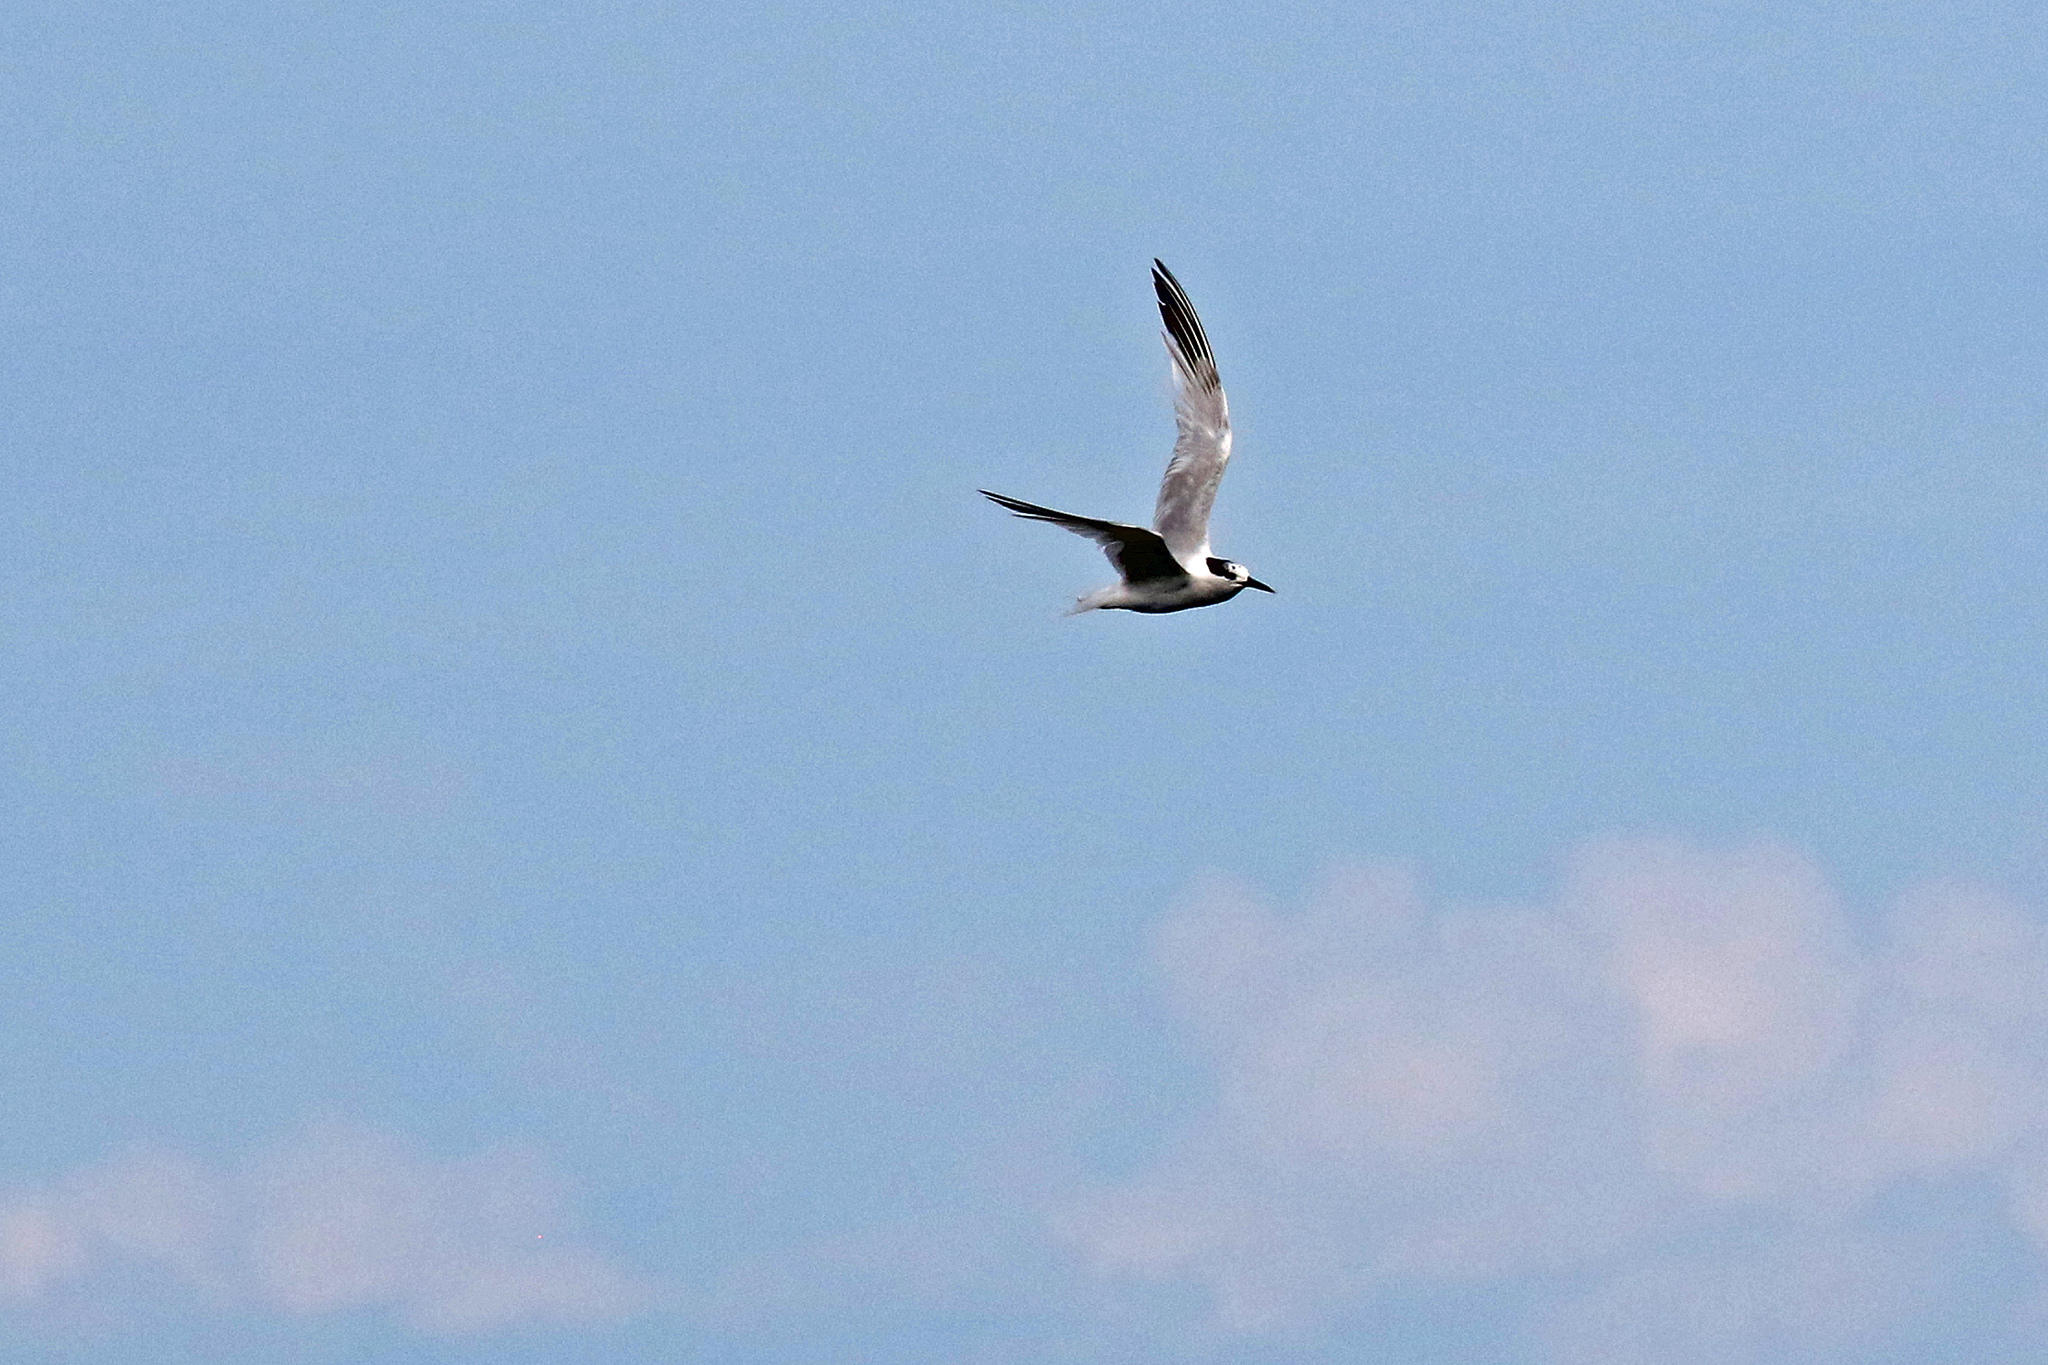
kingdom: Animalia
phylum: Chordata
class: Aves
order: Charadriiformes
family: Laridae
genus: Thalasseus
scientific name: Thalasseus sandvicensis
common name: Sandwich tern
